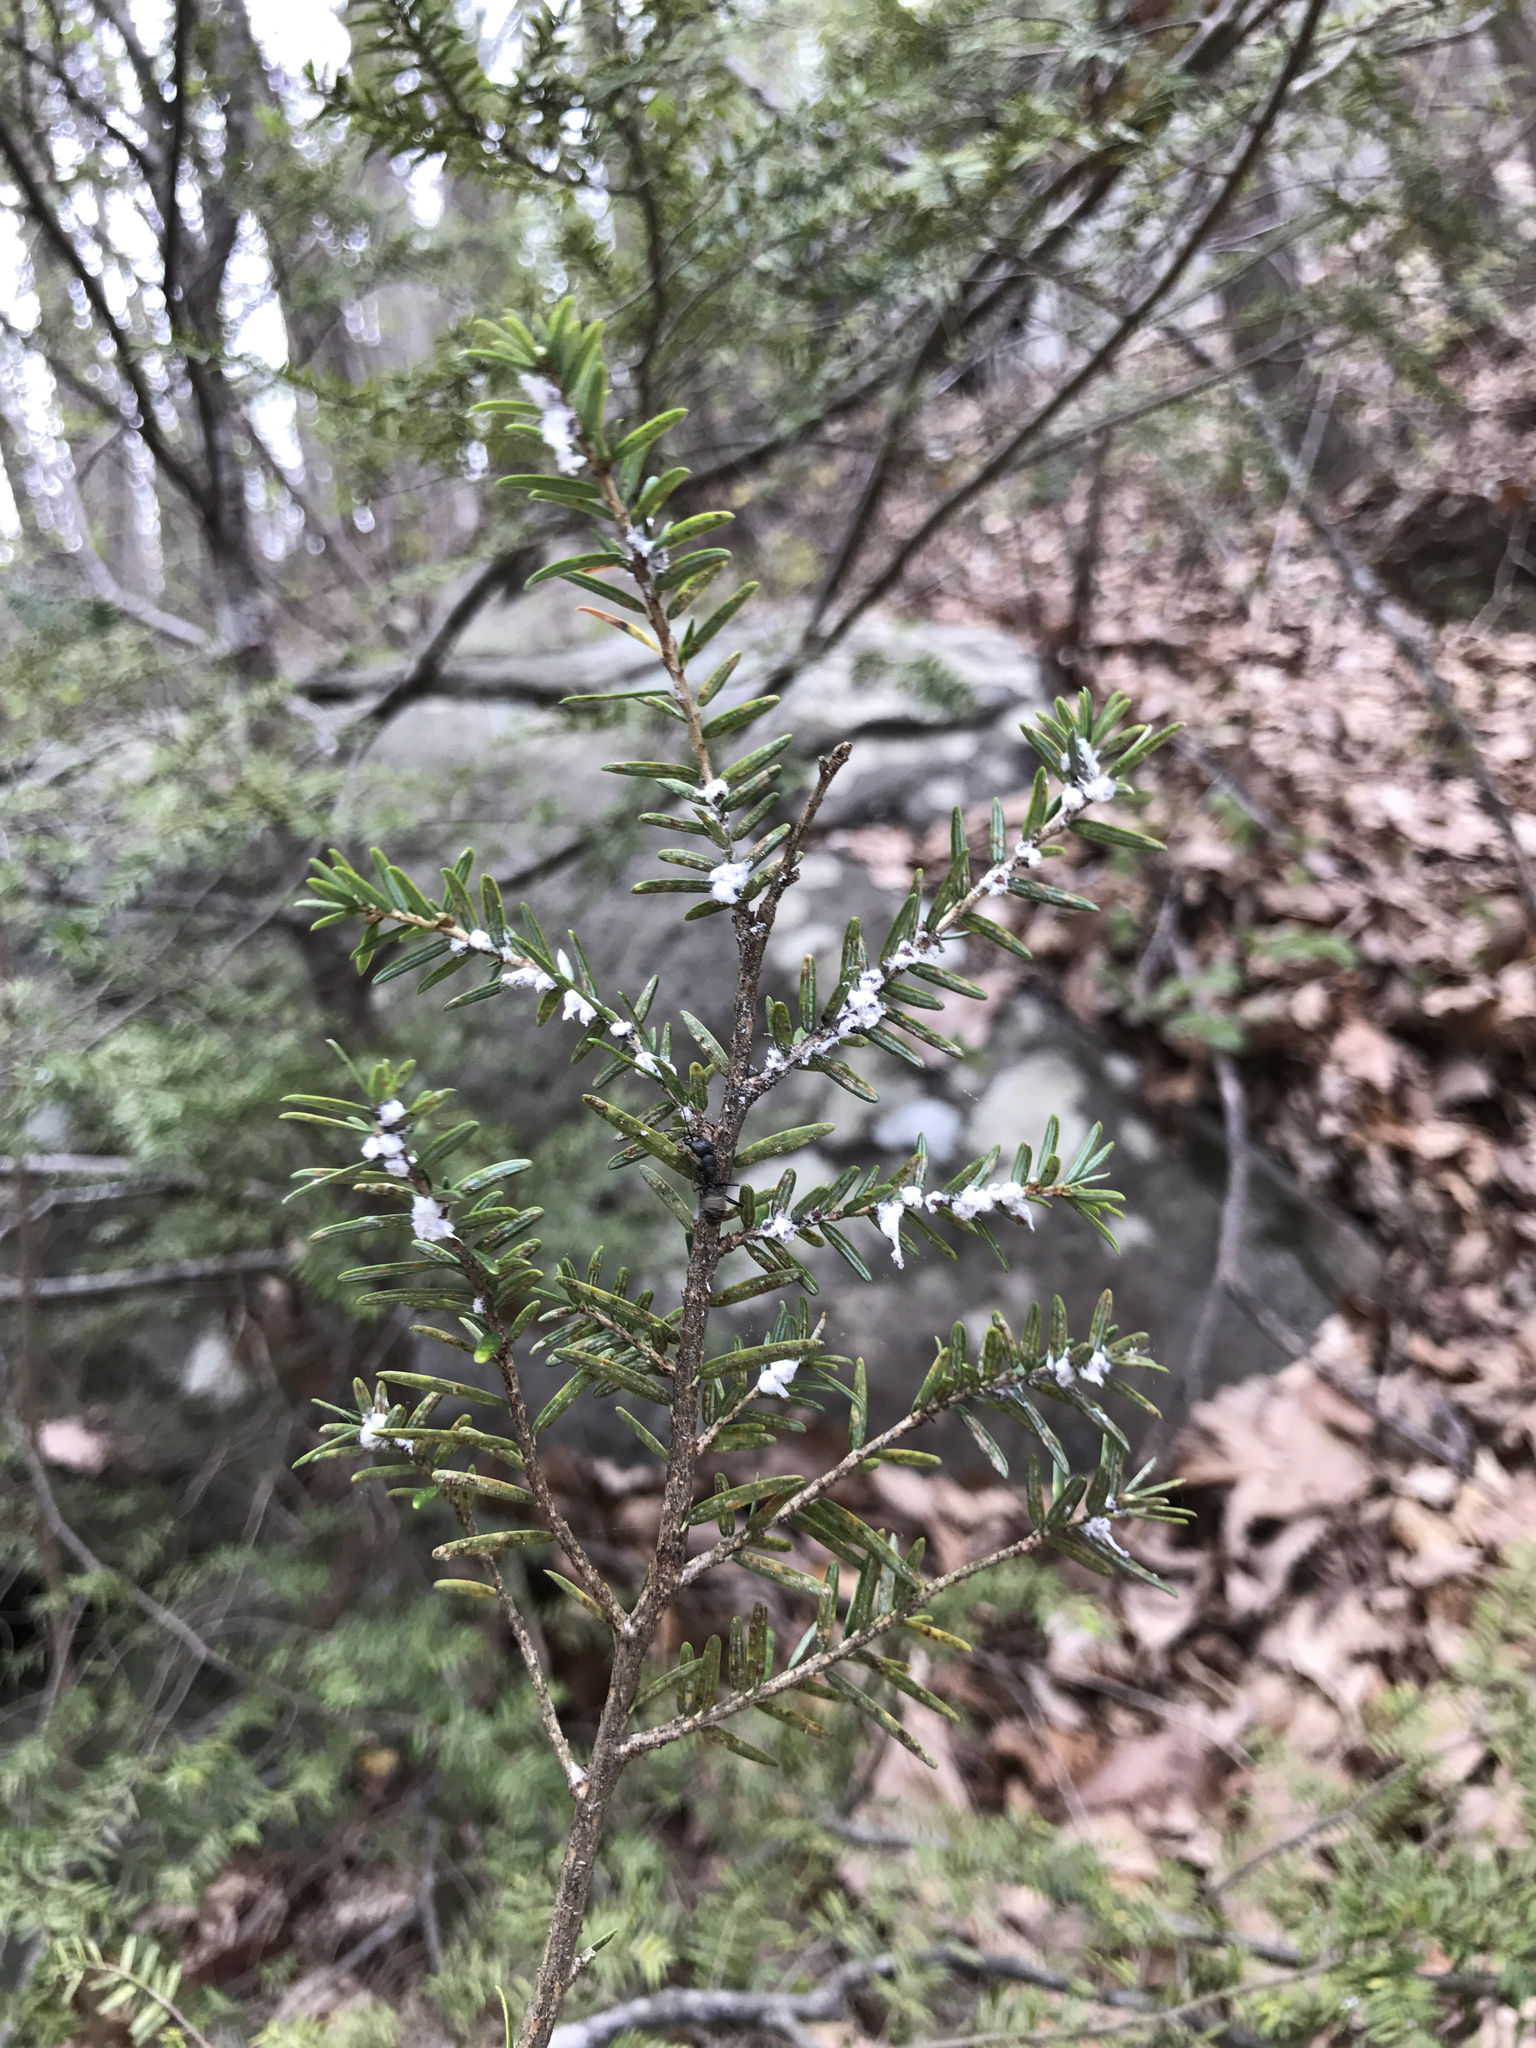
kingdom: Animalia
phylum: Arthropoda
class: Insecta
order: Hemiptera
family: Adelgidae
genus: Adelges
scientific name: Adelges tsugae
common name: Hemlock woolly adelgid
